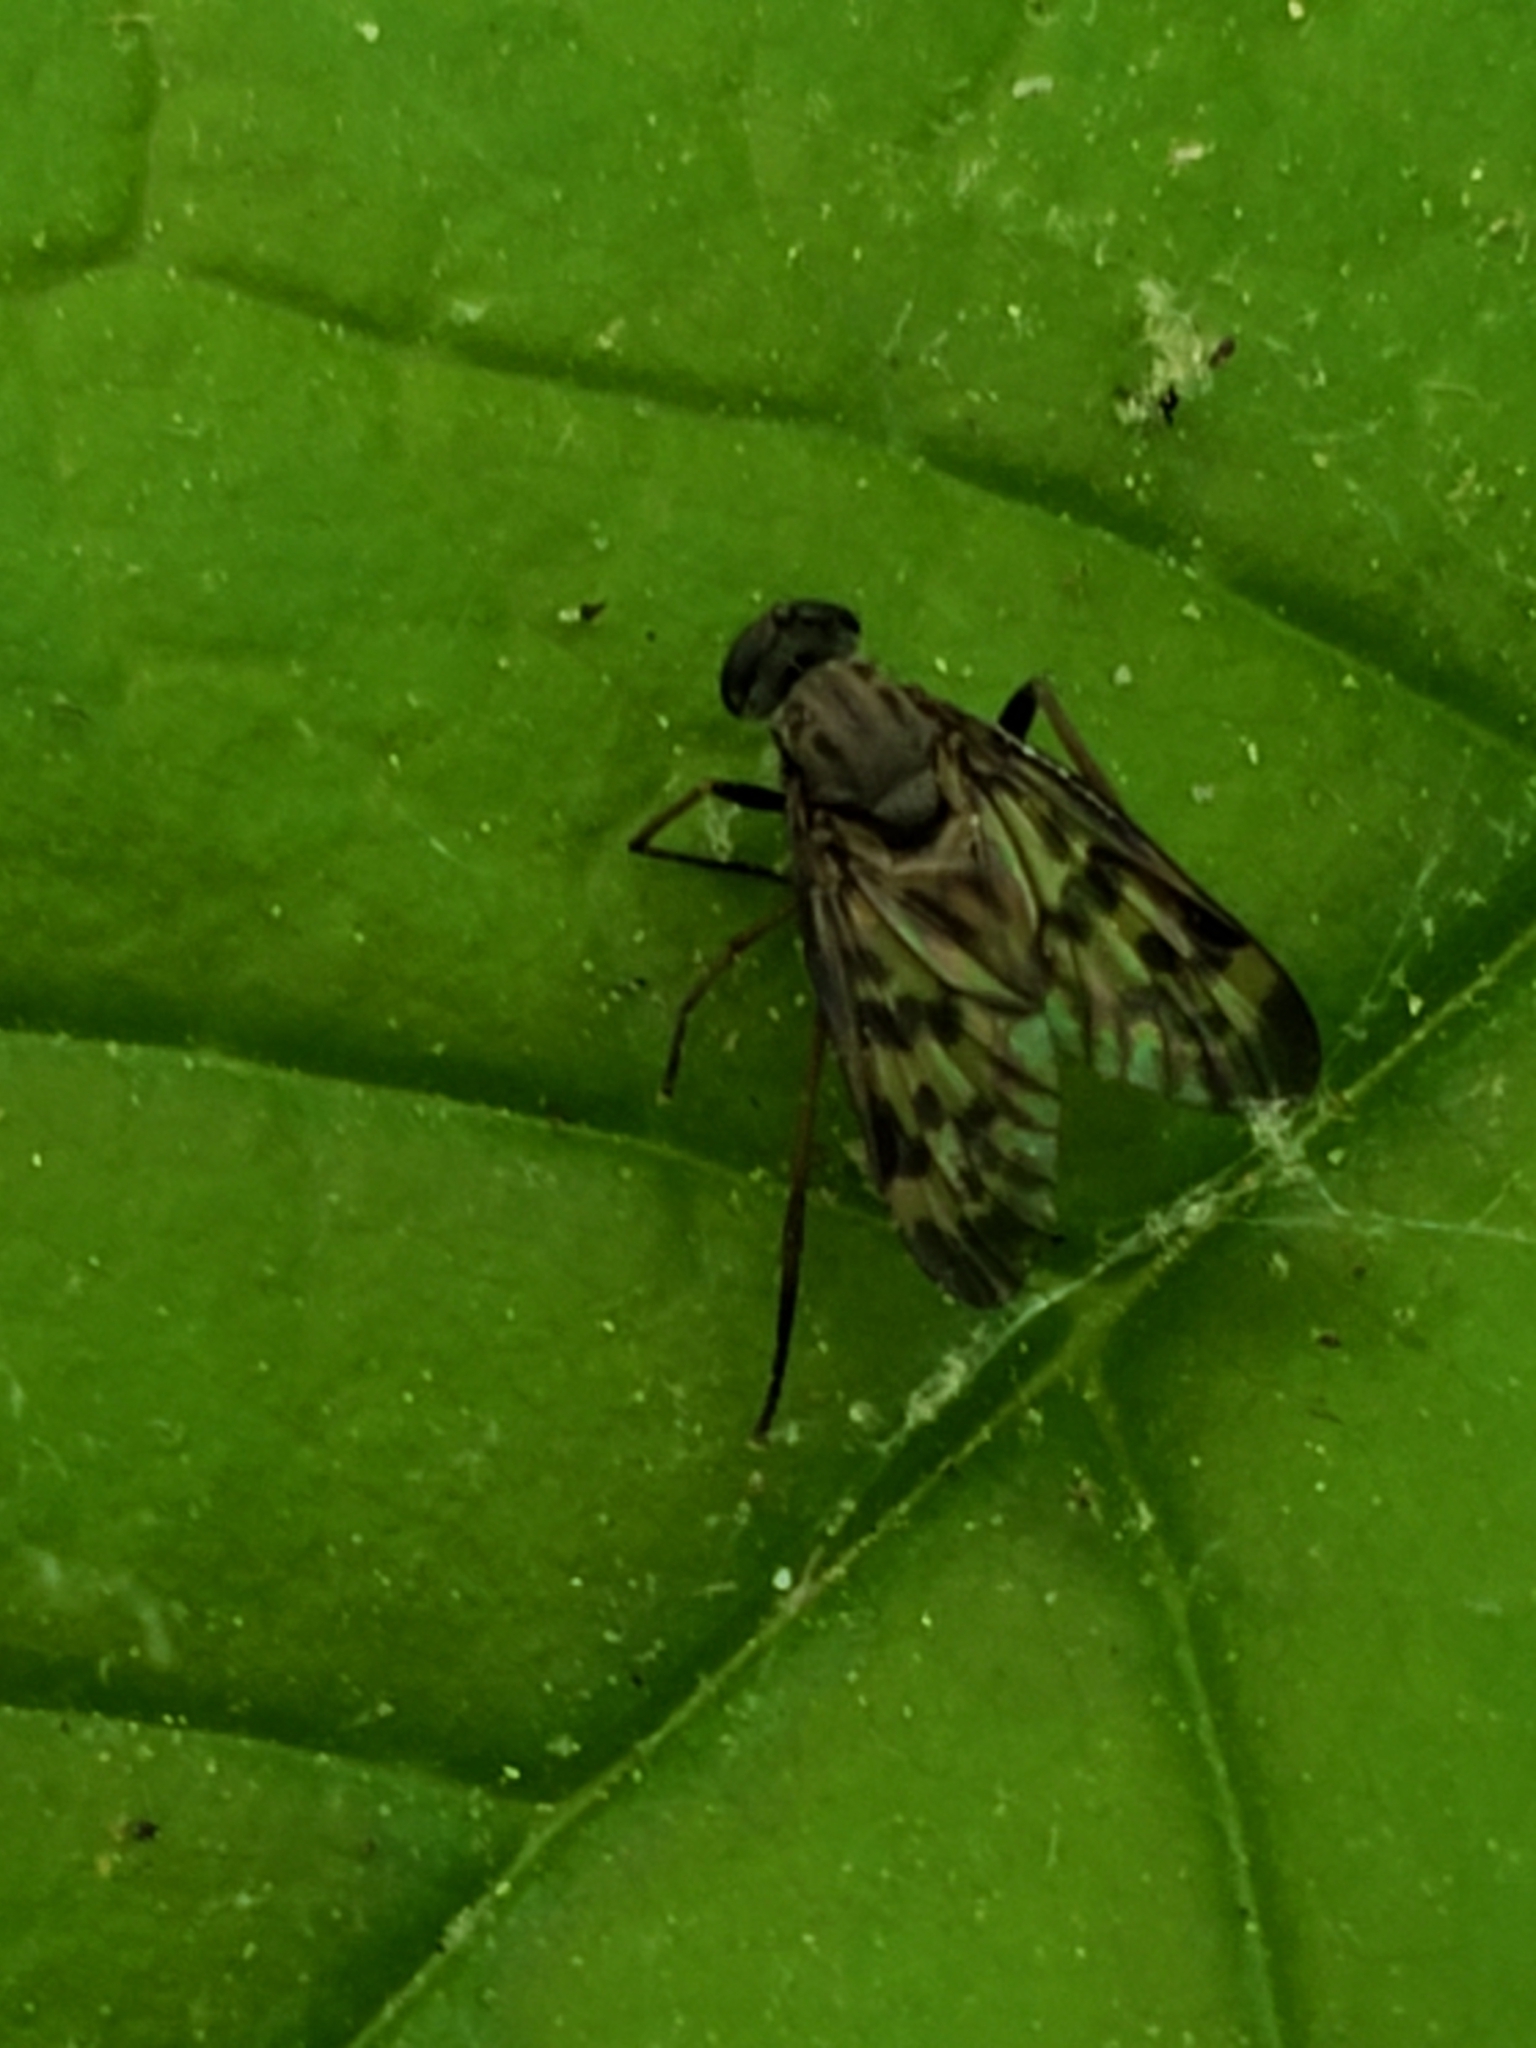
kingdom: Animalia
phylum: Arthropoda
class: Insecta
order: Diptera
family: Rhagionidae
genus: Rhagio
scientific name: Rhagio punctipennis
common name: Lesser variegated snipe fly
